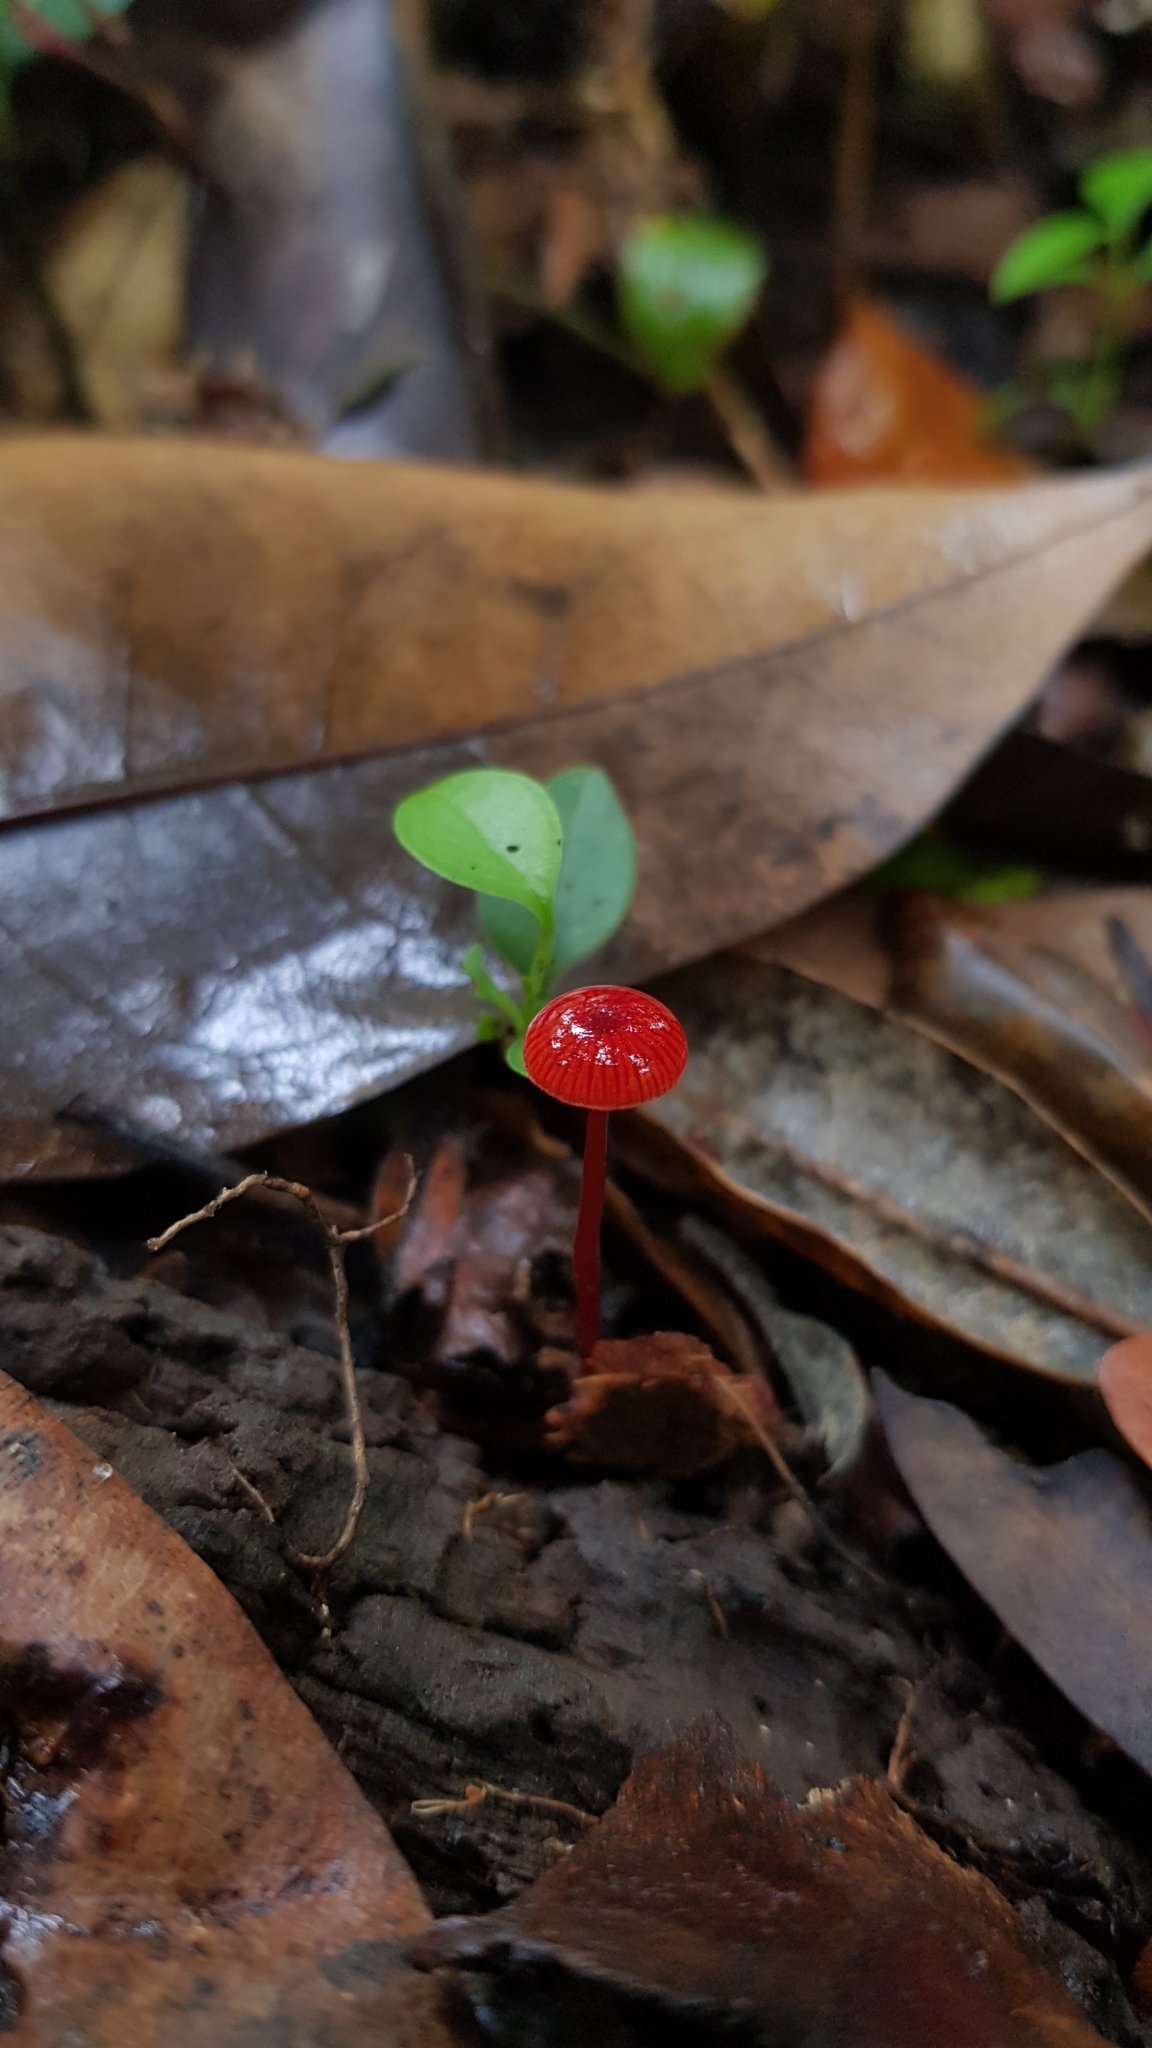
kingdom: Fungi
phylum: Basidiomycota
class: Agaricomycetes
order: Agaricales
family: Mycenaceae
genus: Cruentomycena
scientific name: Cruentomycena viscidocruenta
